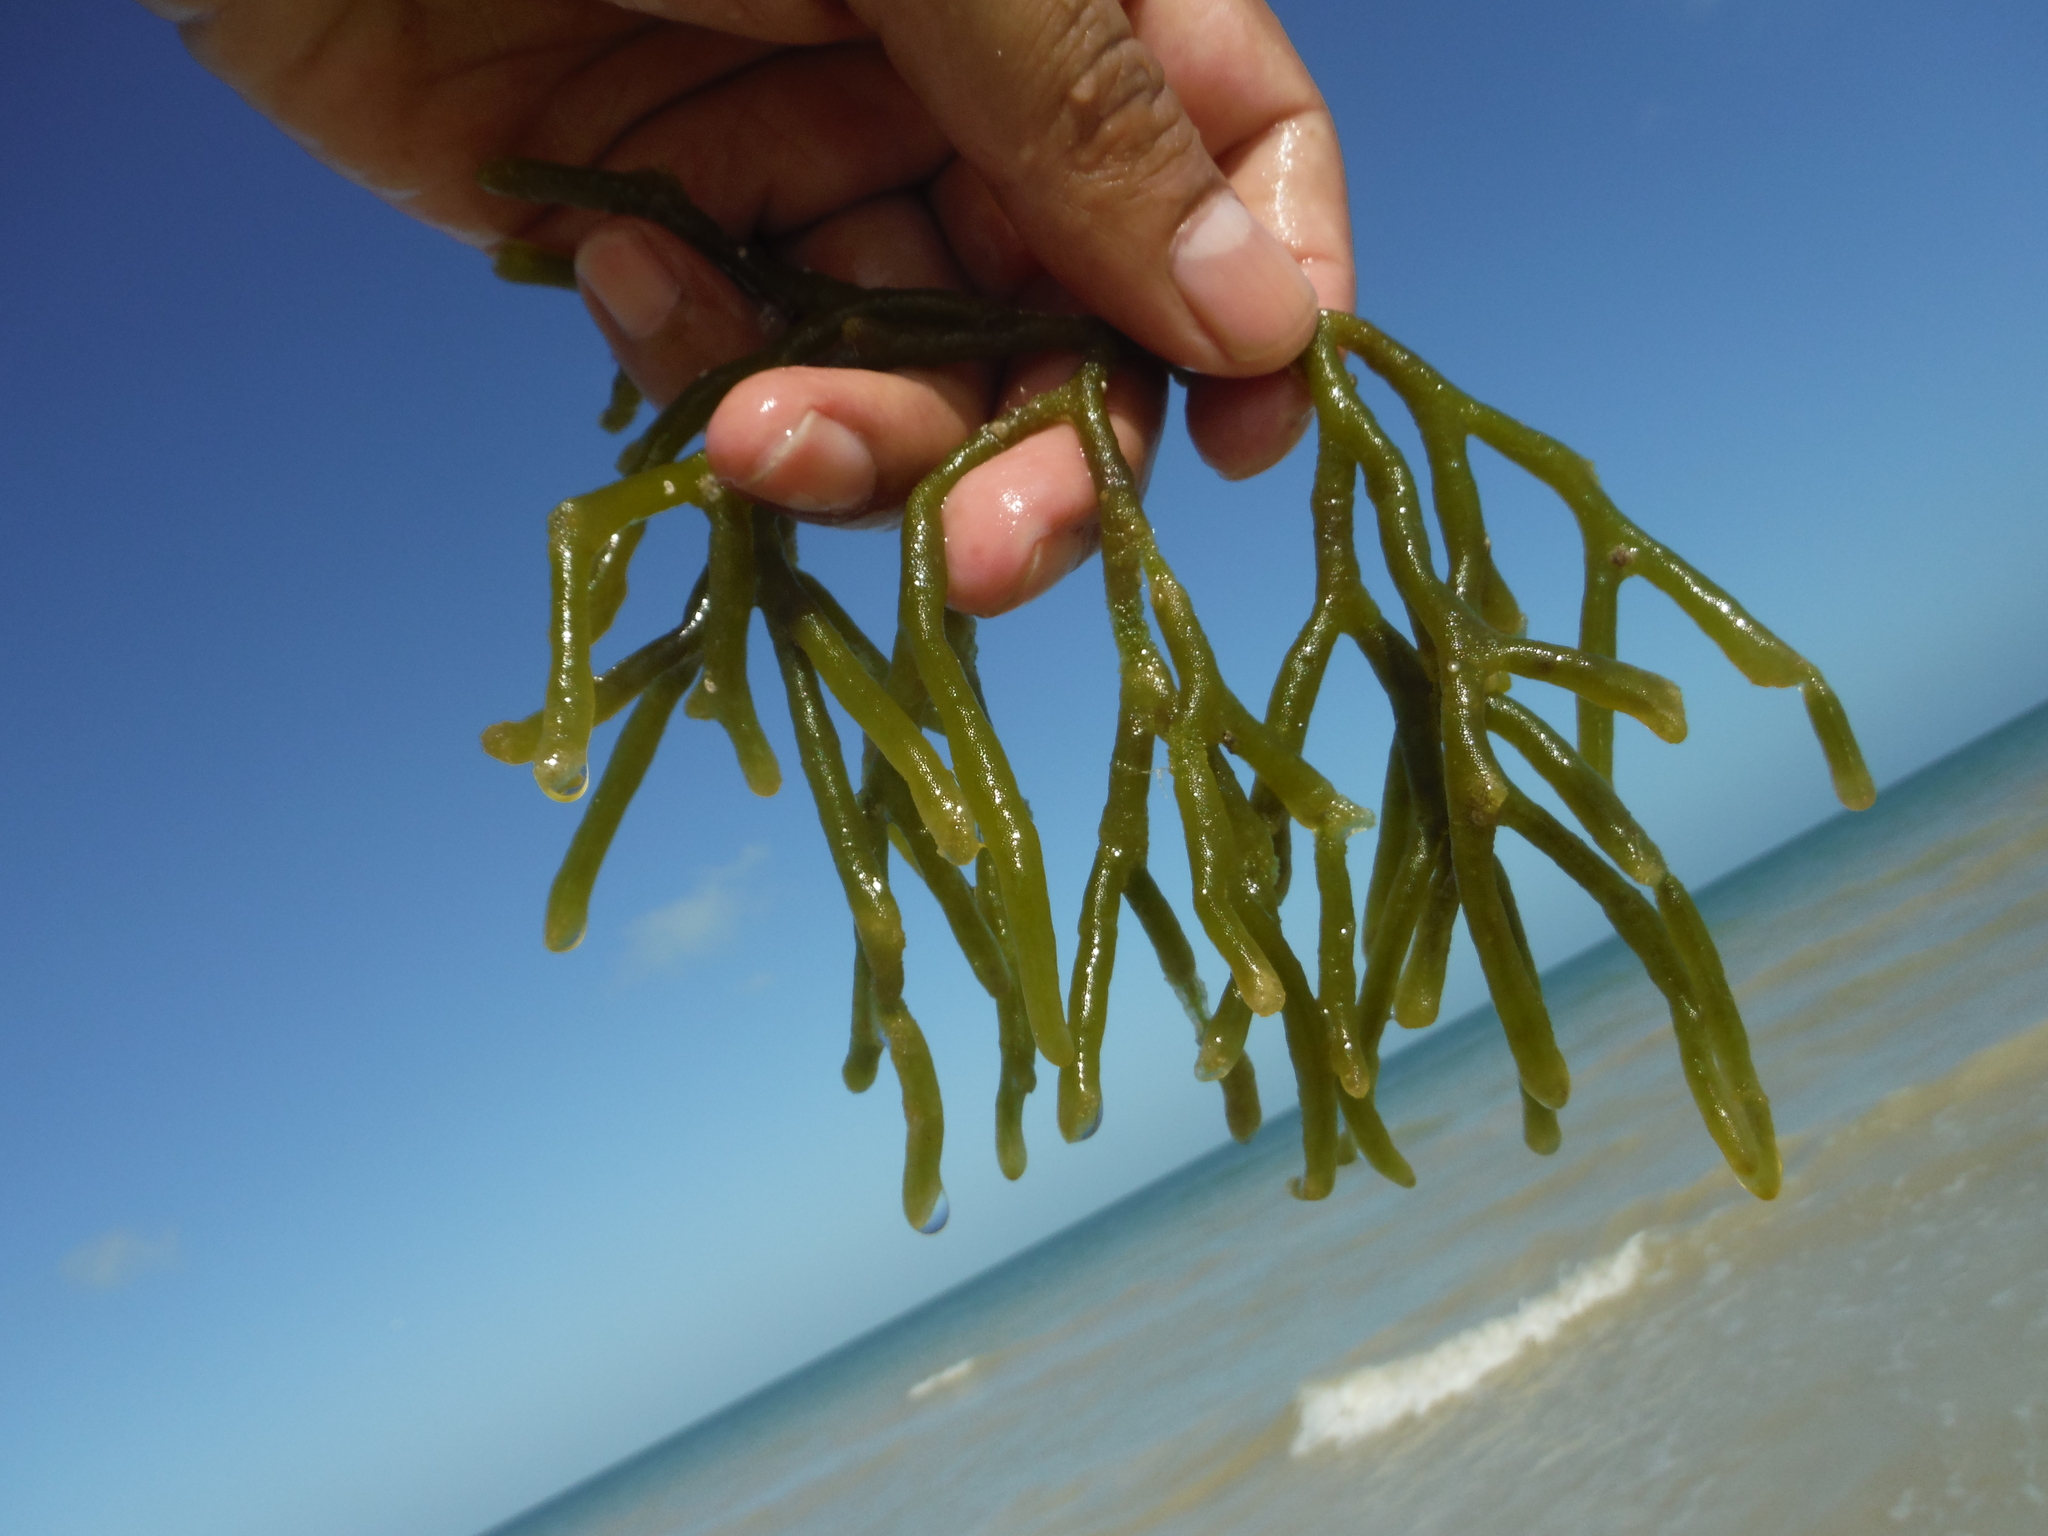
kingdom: Plantae
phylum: Chlorophyta
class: Ulvophyceae
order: Bryopsidales
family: Codiaceae
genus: Codium
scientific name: Codium isthmocladum
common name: Dead man's fingers
